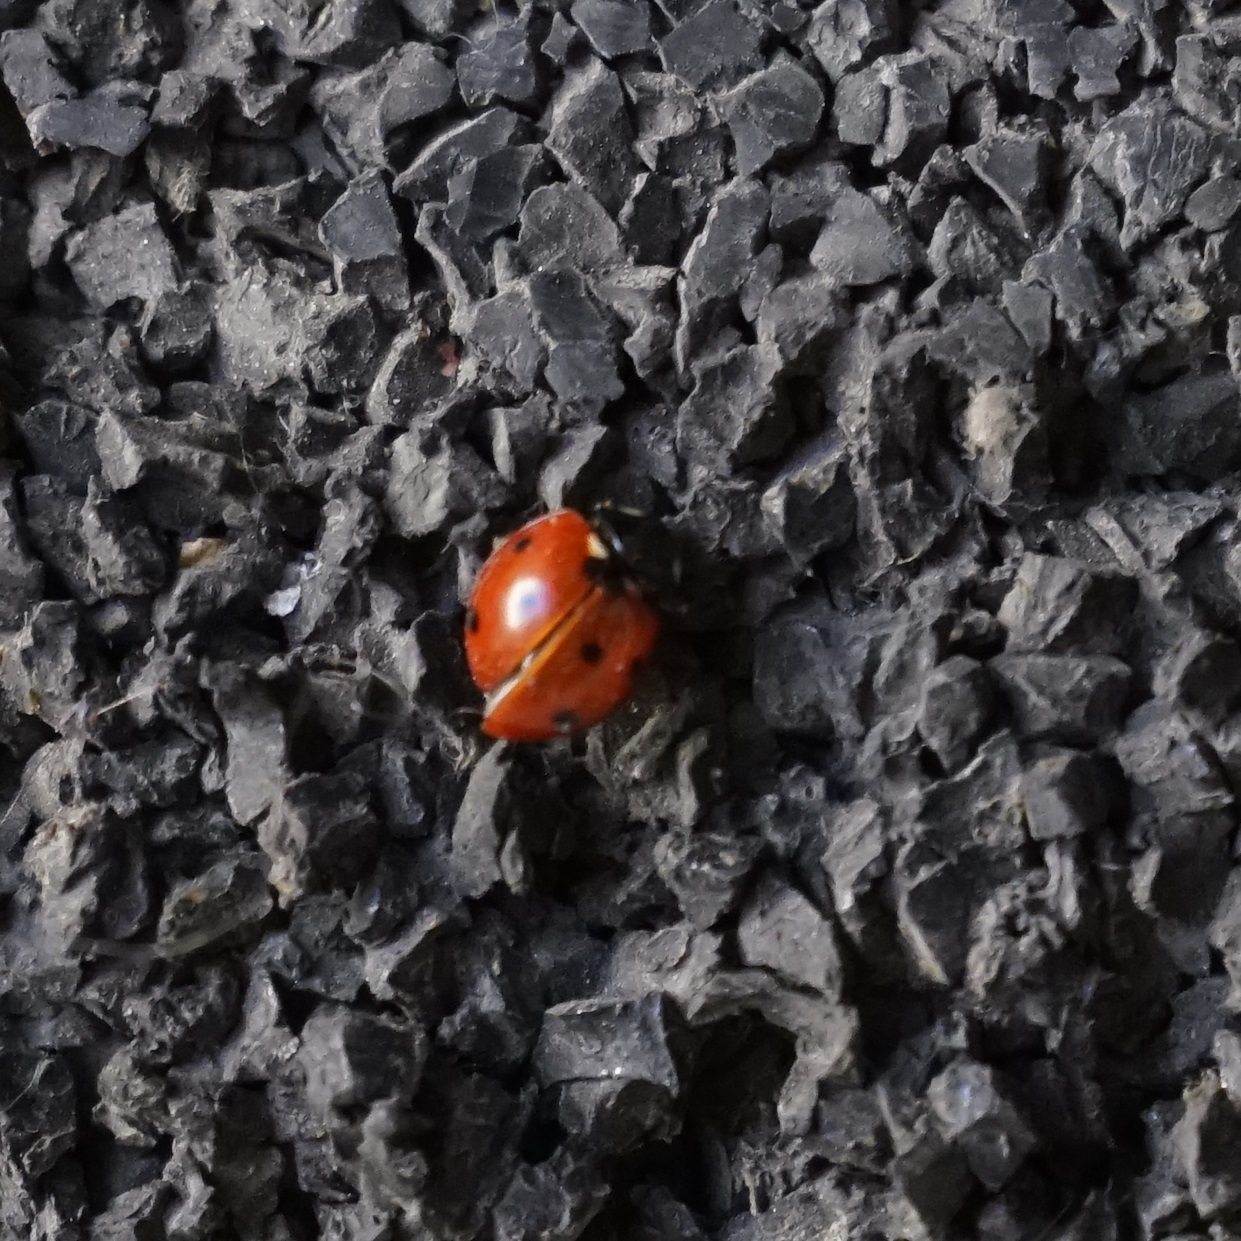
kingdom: Animalia
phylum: Arthropoda
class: Insecta
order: Coleoptera
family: Coccinellidae
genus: Coccinella
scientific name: Coccinella septempunctata
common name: Sevenspotted lady beetle
